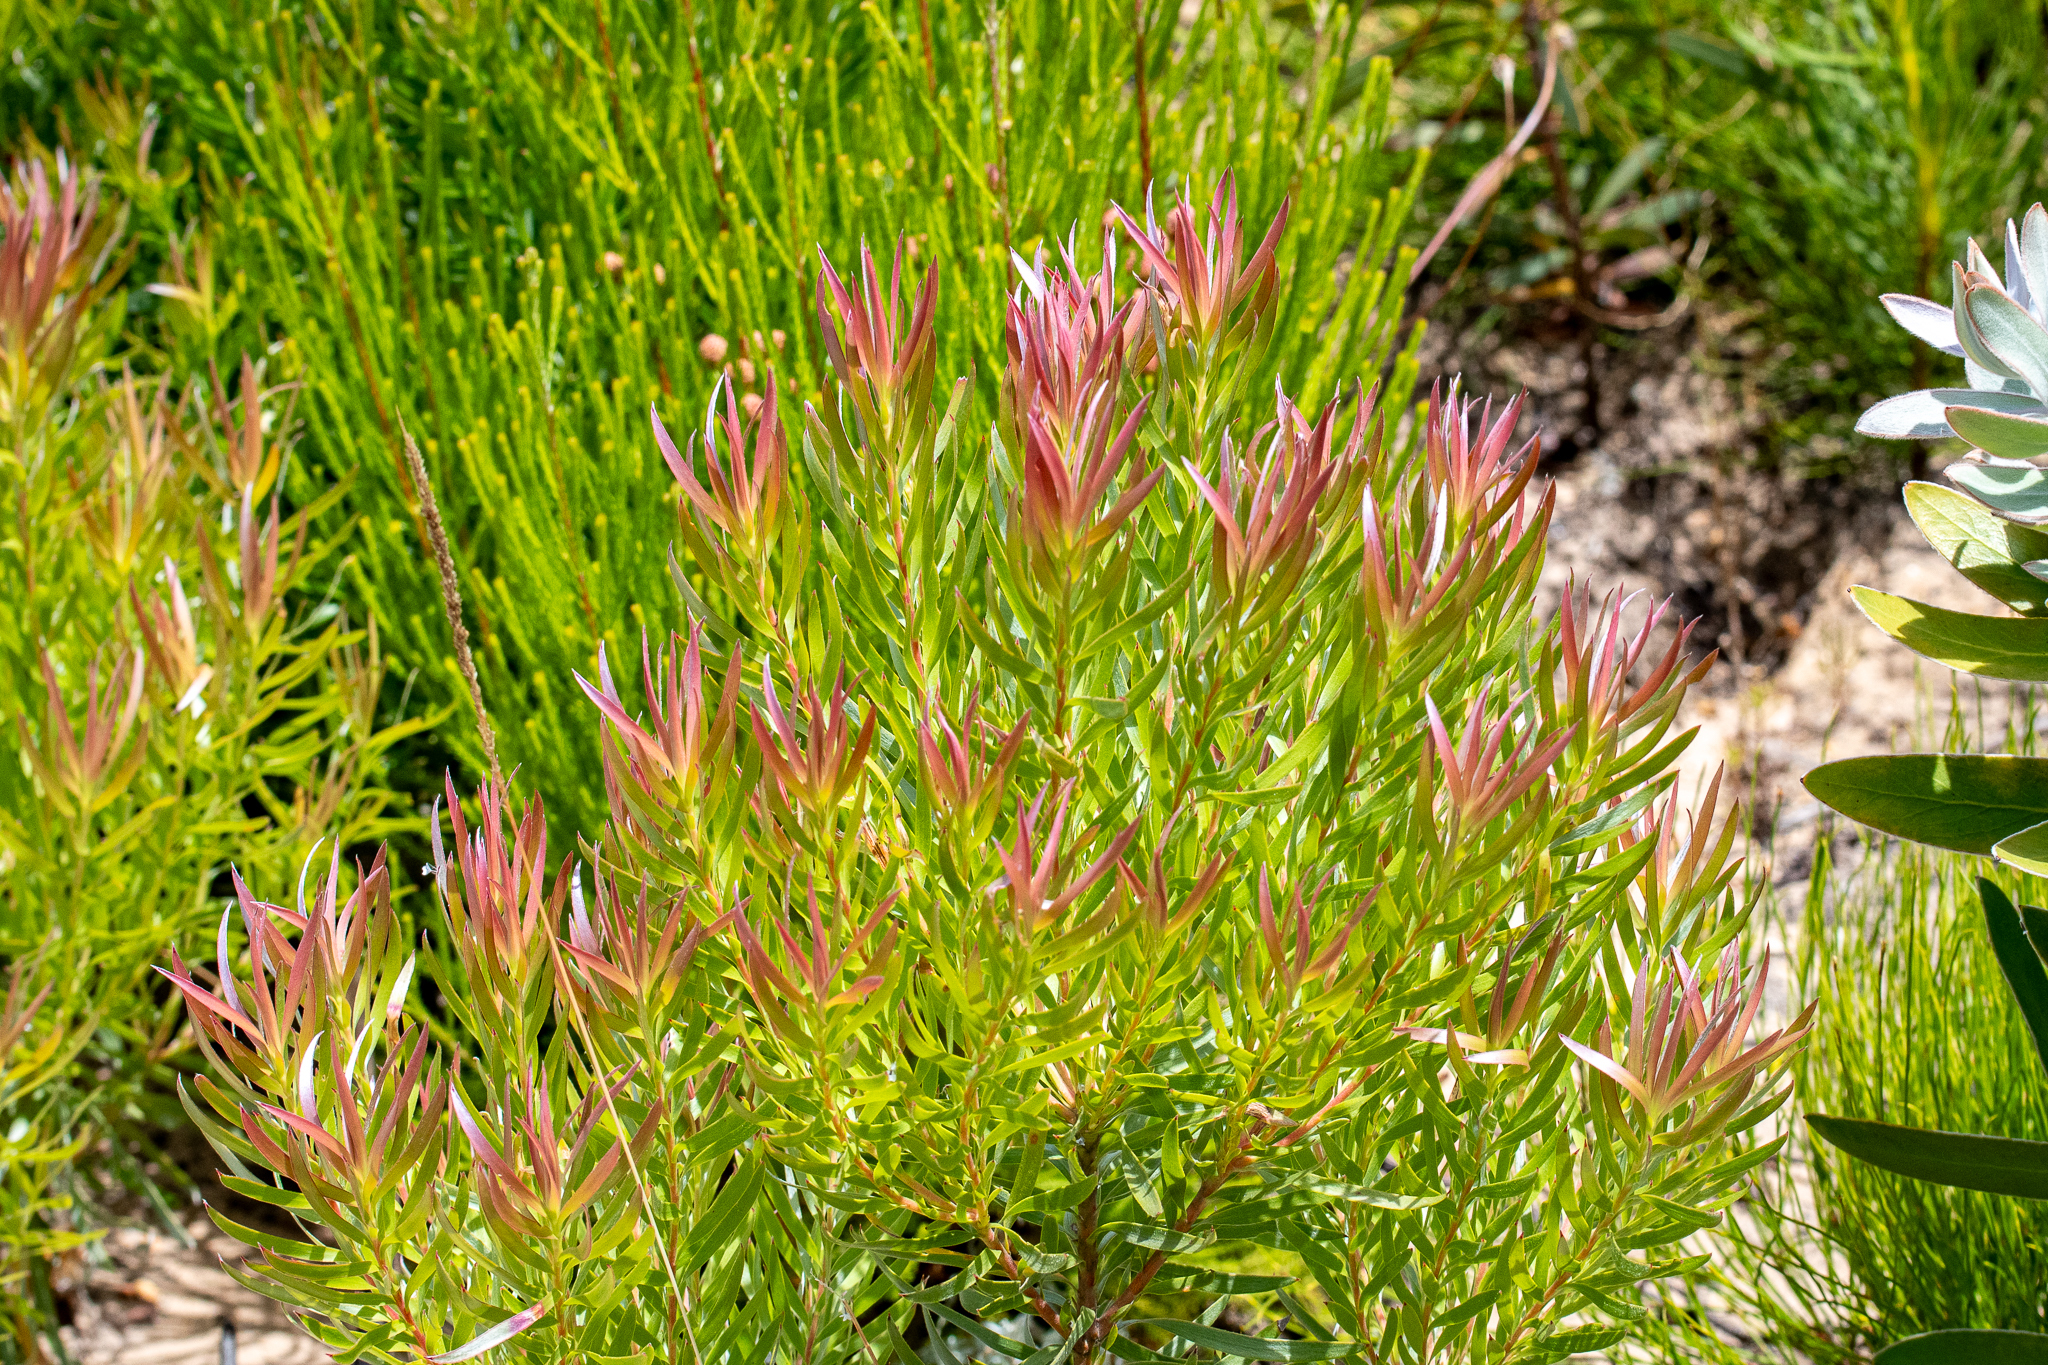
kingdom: Plantae
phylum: Tracheophyta
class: Magnoliopsida
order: Proteales
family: Proteaceae
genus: Leucadendron
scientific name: Leucadendron xanthoconus
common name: Sickle-leaf conebush
